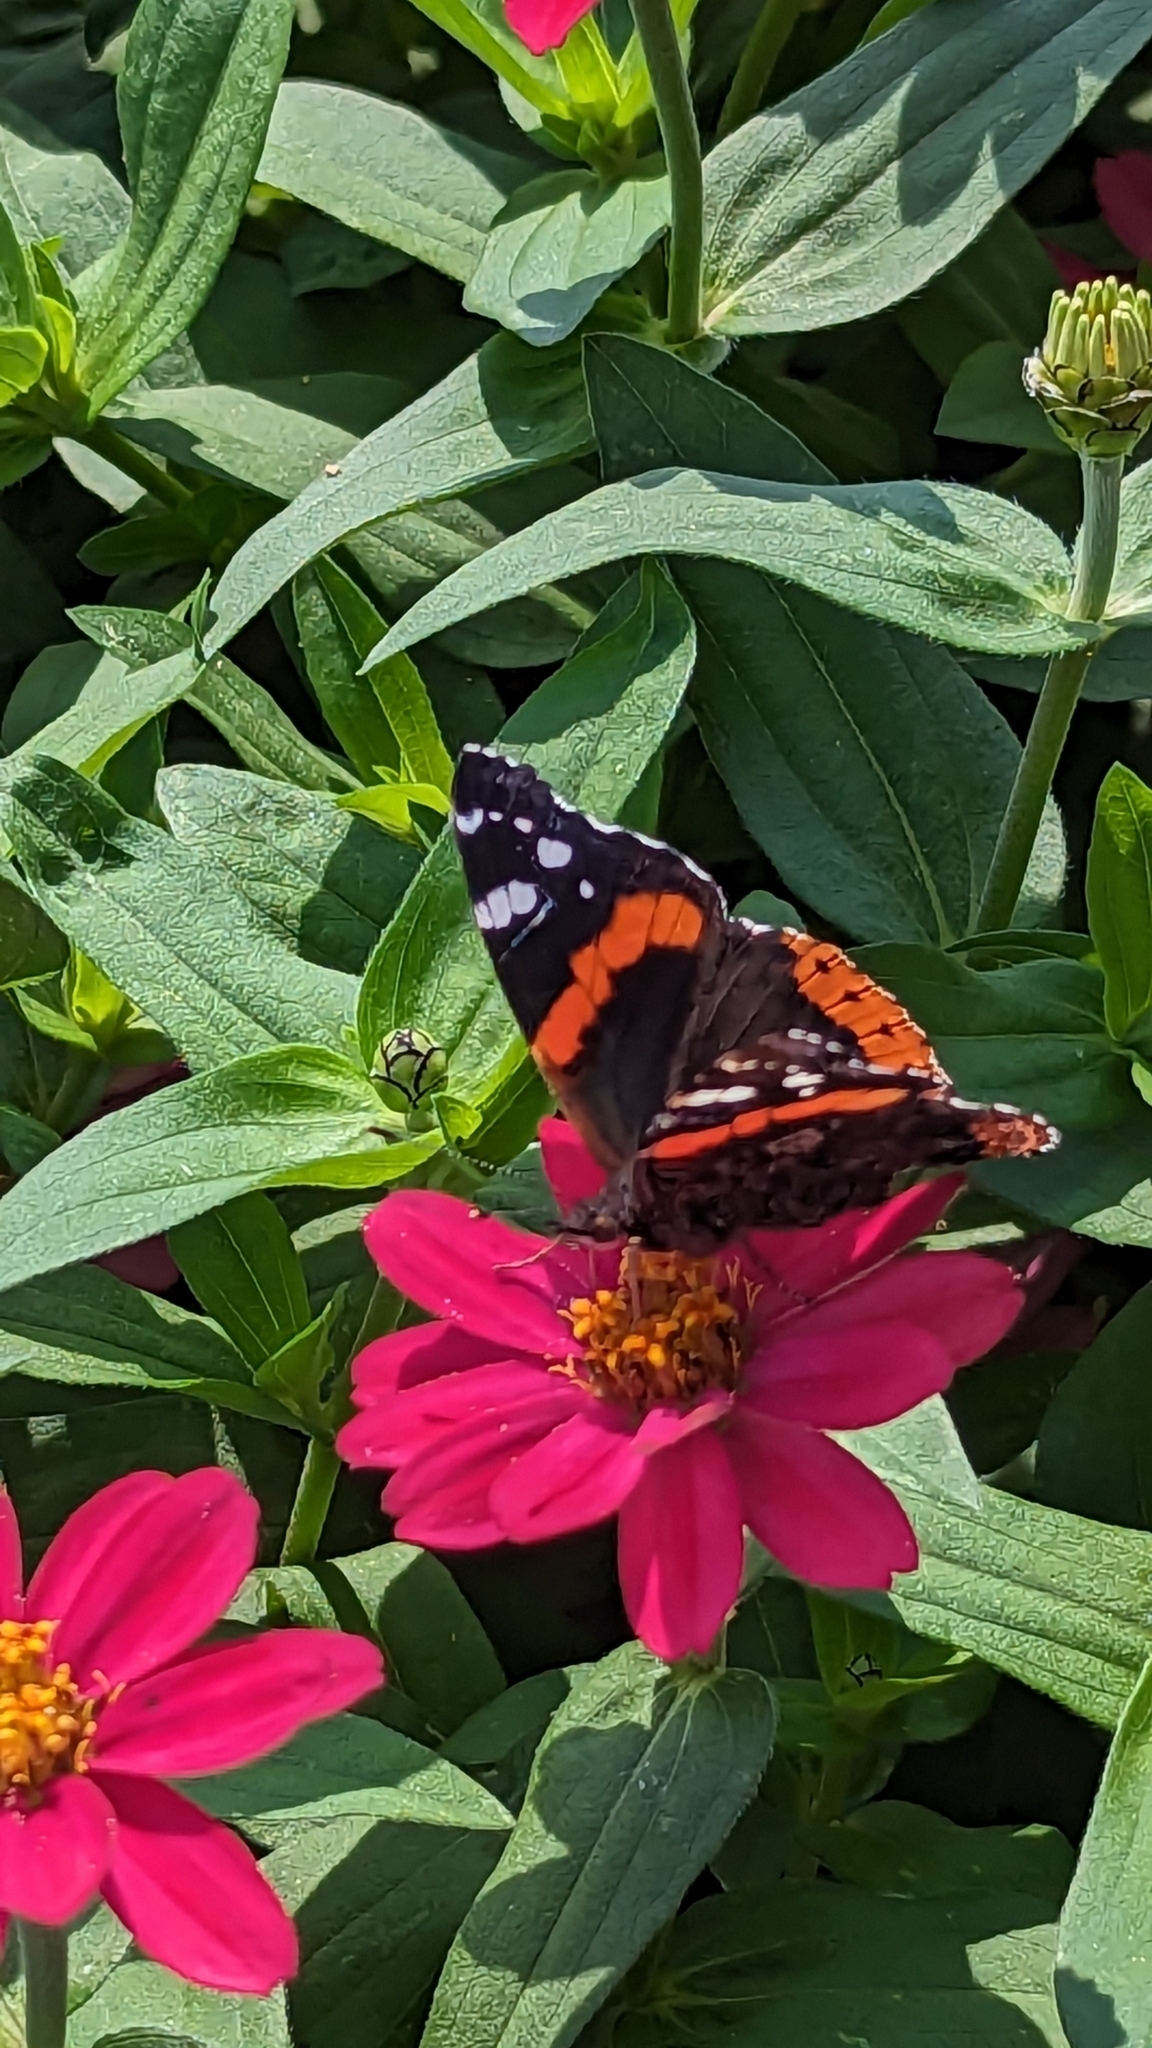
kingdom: Animalia
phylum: Arthropoda
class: Insecta
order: Lepidoptera
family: Nymphalidae
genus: Vanessa
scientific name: Vanessa atalanta
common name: Red admiral
